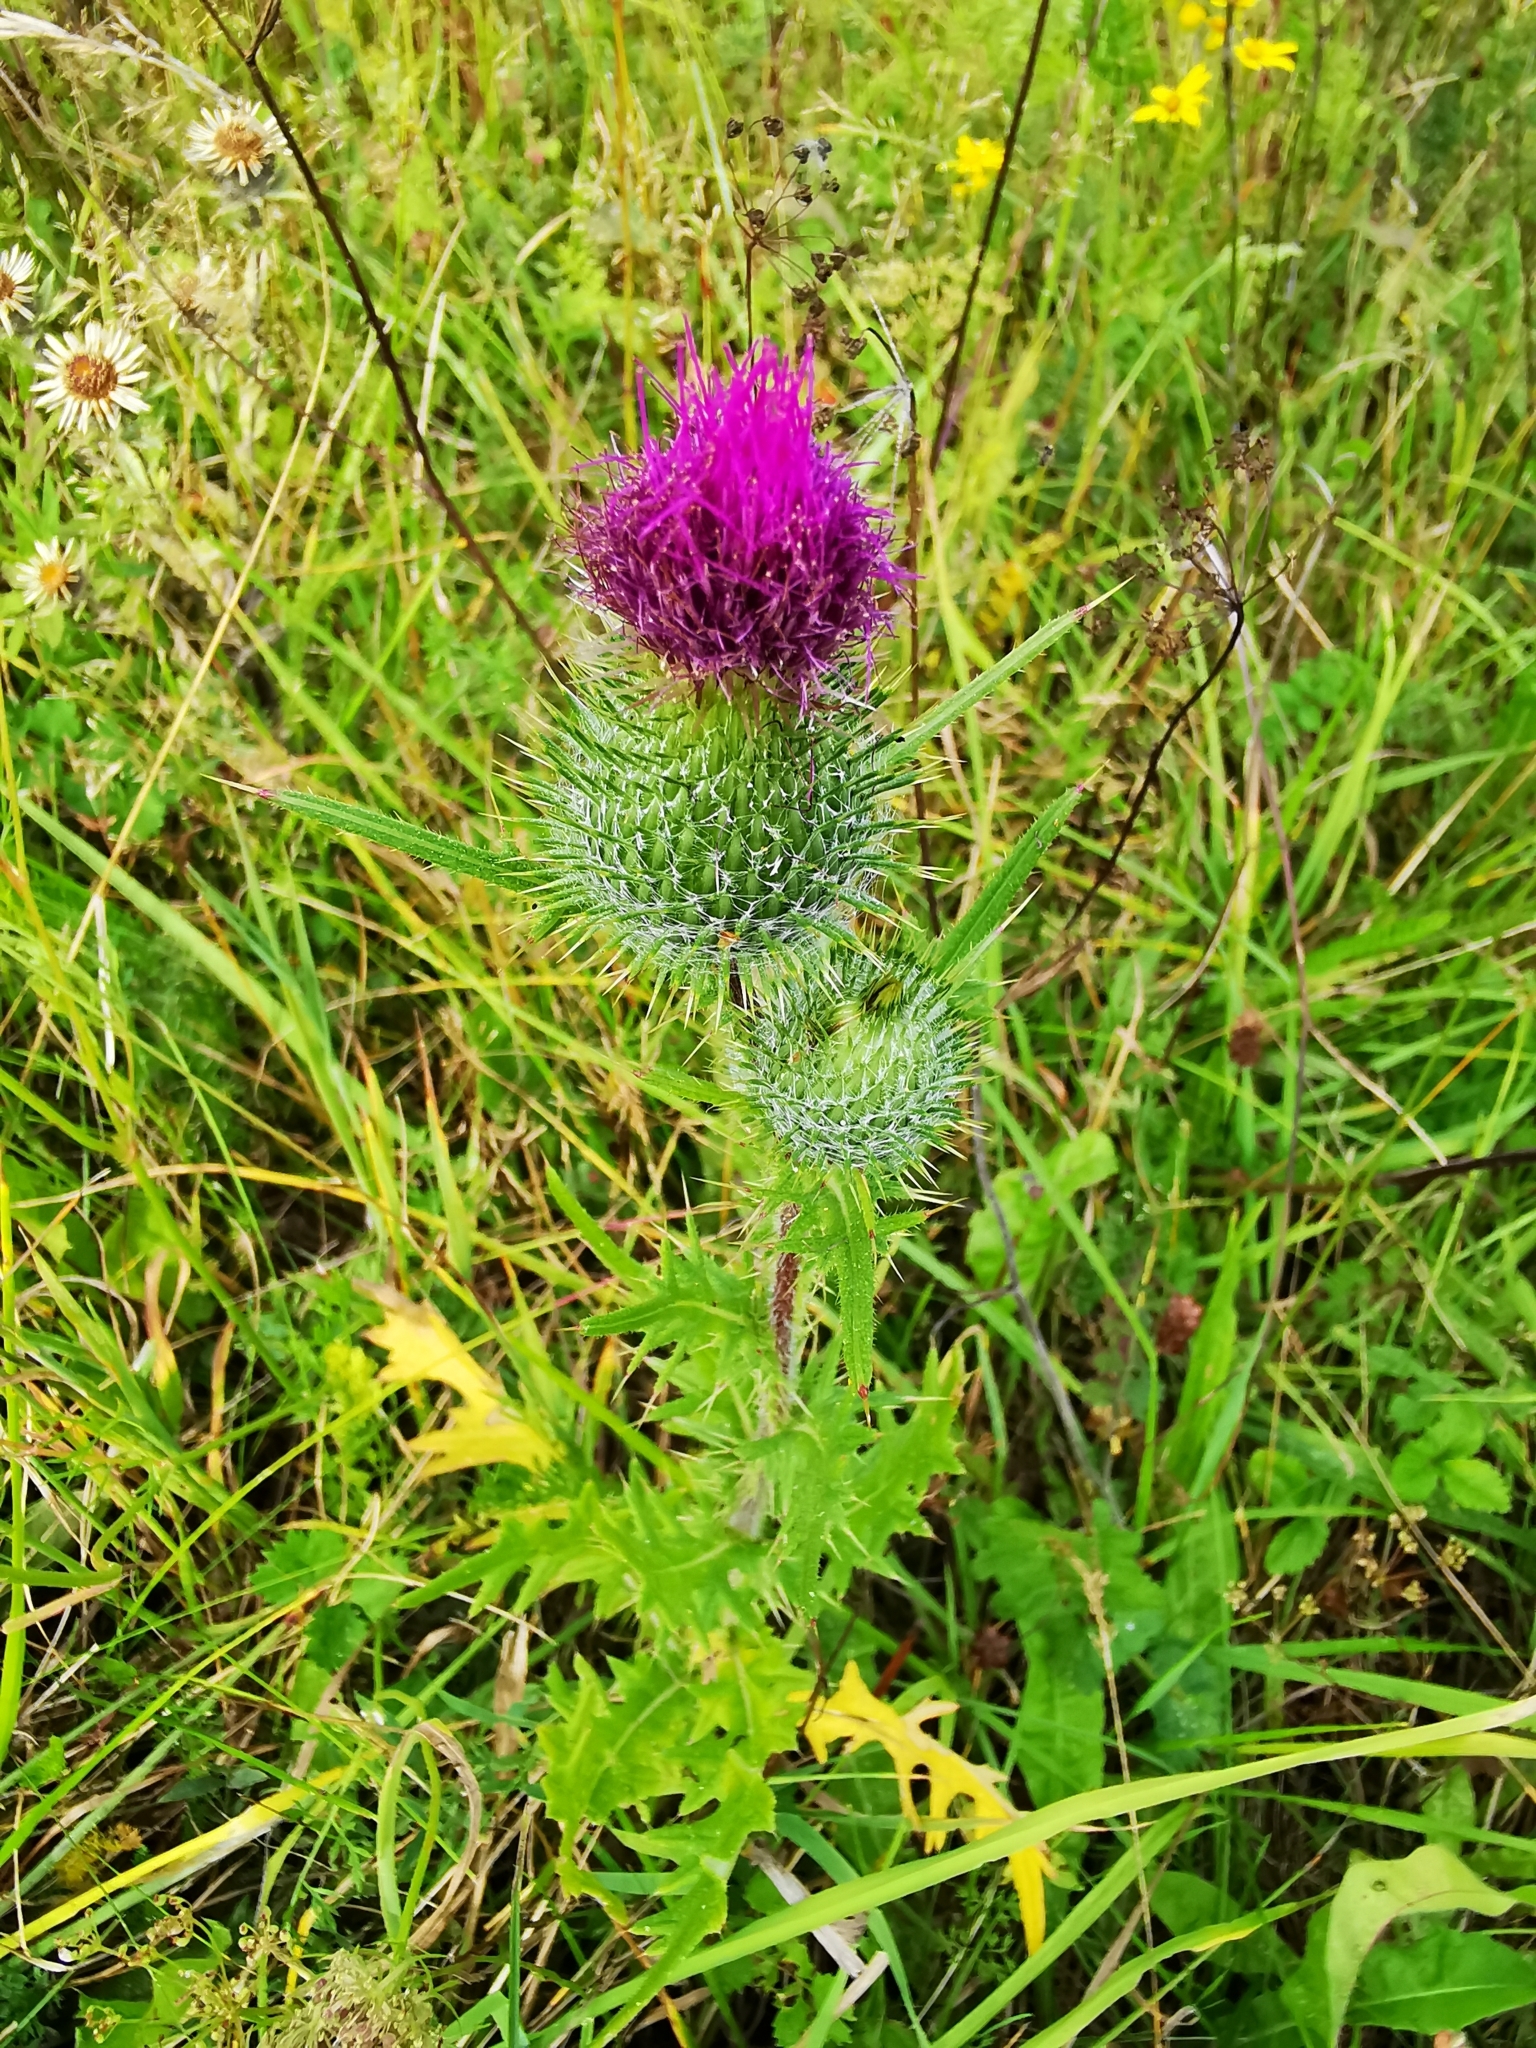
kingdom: Plantae
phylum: Tracheophyta
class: Magnoliopsida
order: Asterales
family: Asteraceae
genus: Cirsium
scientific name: Cirsium vulgare
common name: Bull thistle
